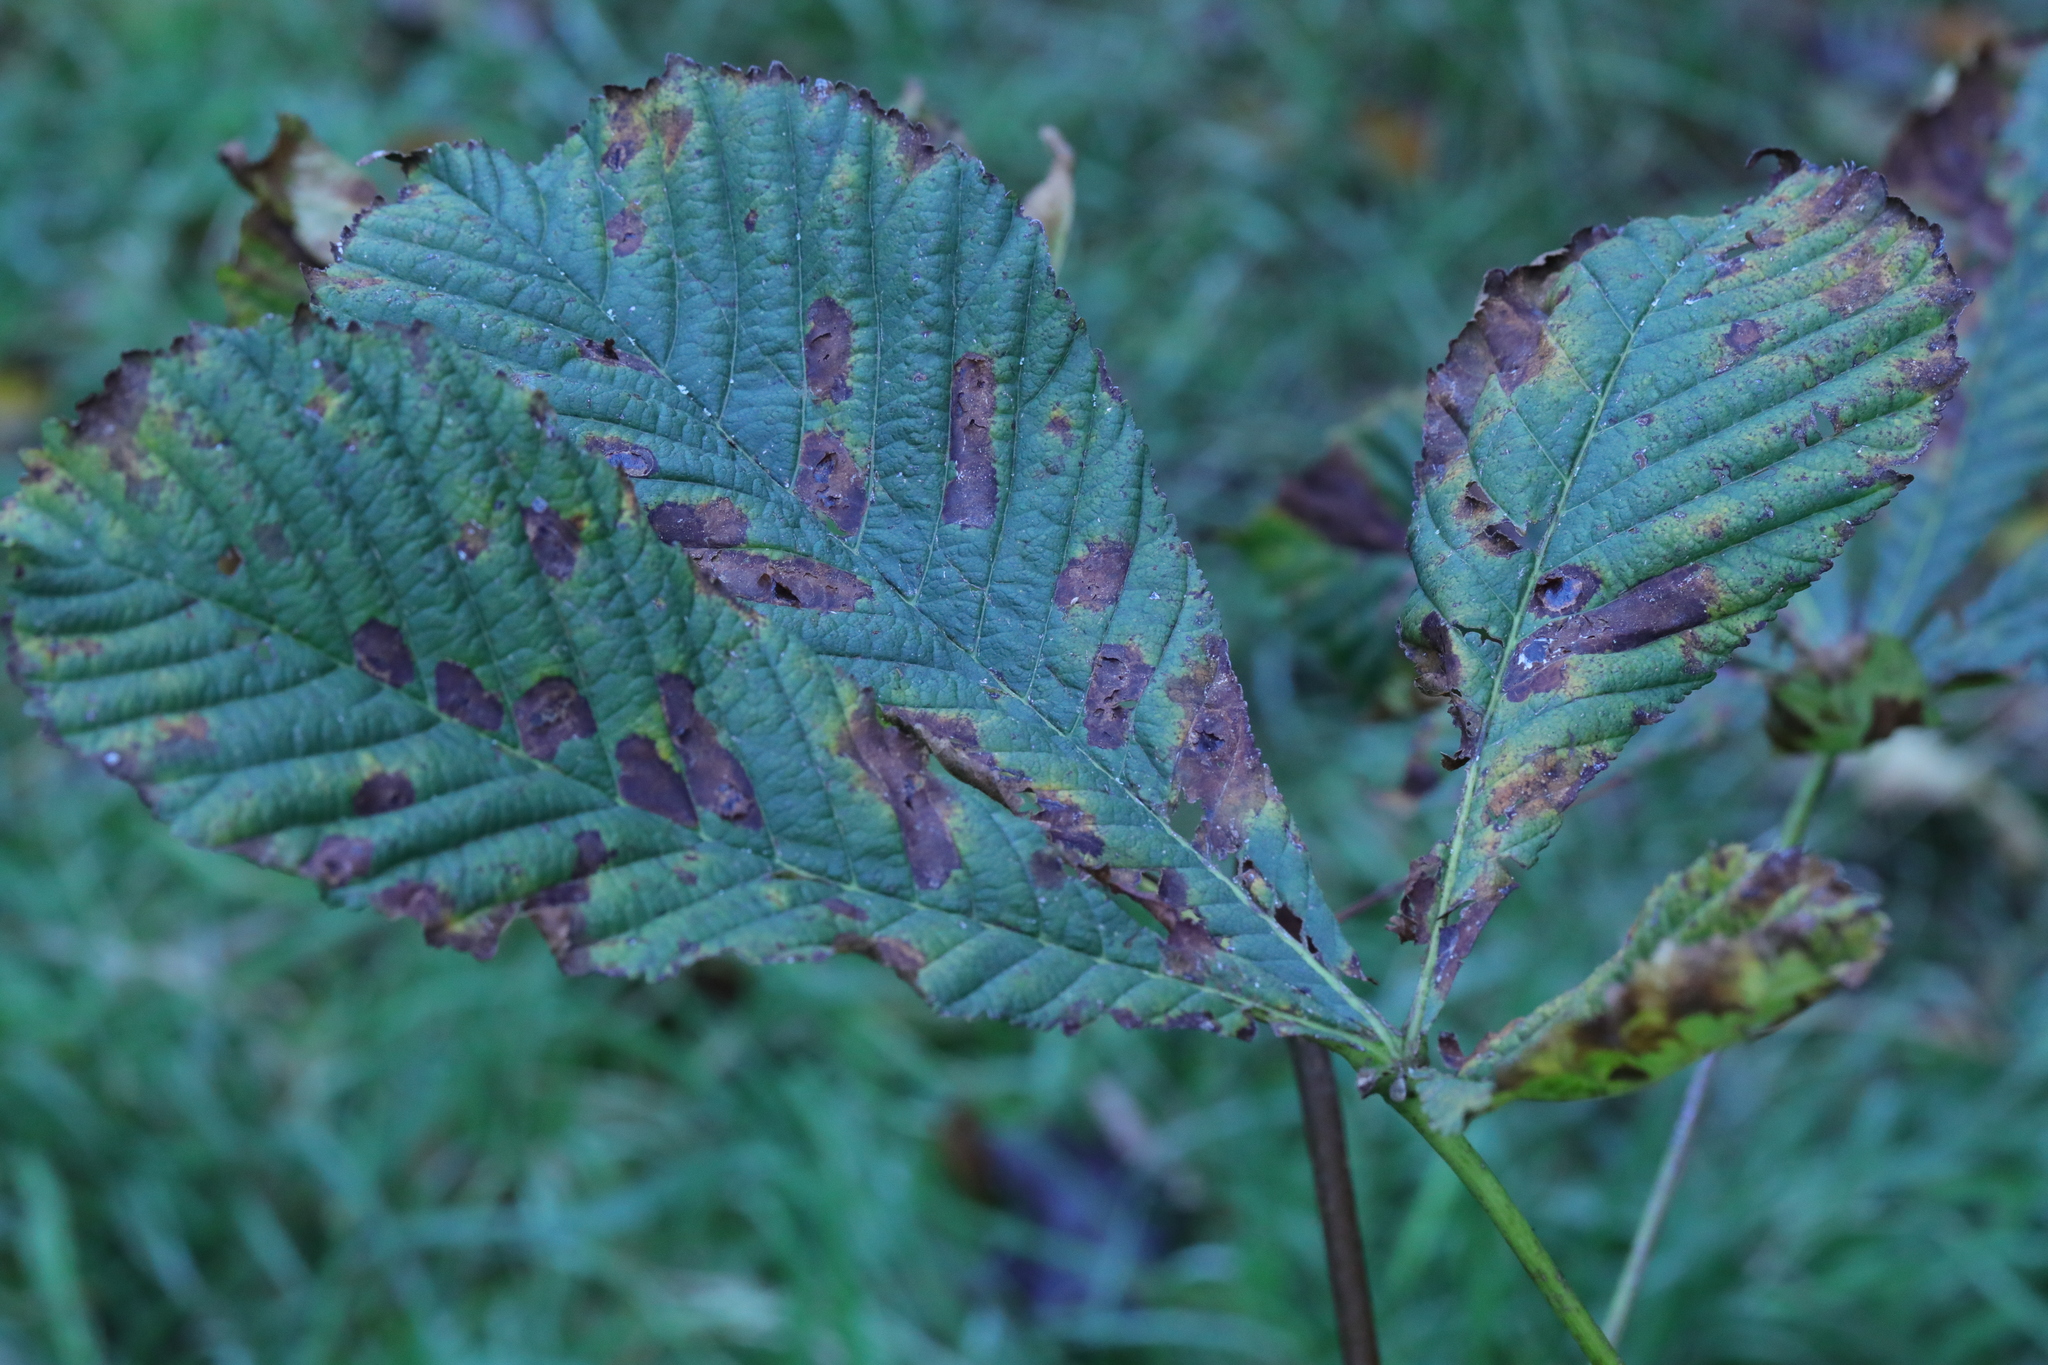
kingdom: Plantae
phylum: Tracheophyta
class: Magnoliopsida
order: Sapindales
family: Sapindaceae
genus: Aesculus
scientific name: Aesculus hippocastanum
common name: Horse-chestnut
